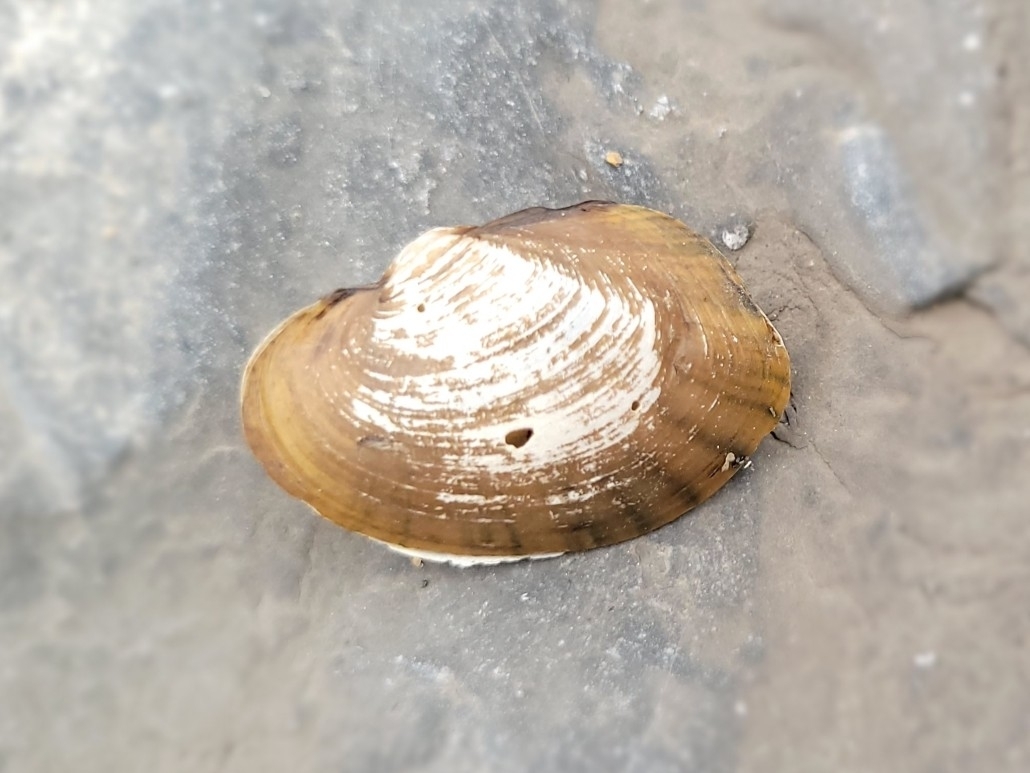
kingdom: Animalia
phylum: Mollusca
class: Bivalvia
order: Unionida
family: Unionidae
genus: Lampsilis
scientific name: Lampsilis cardium
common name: Plain pocketbook
